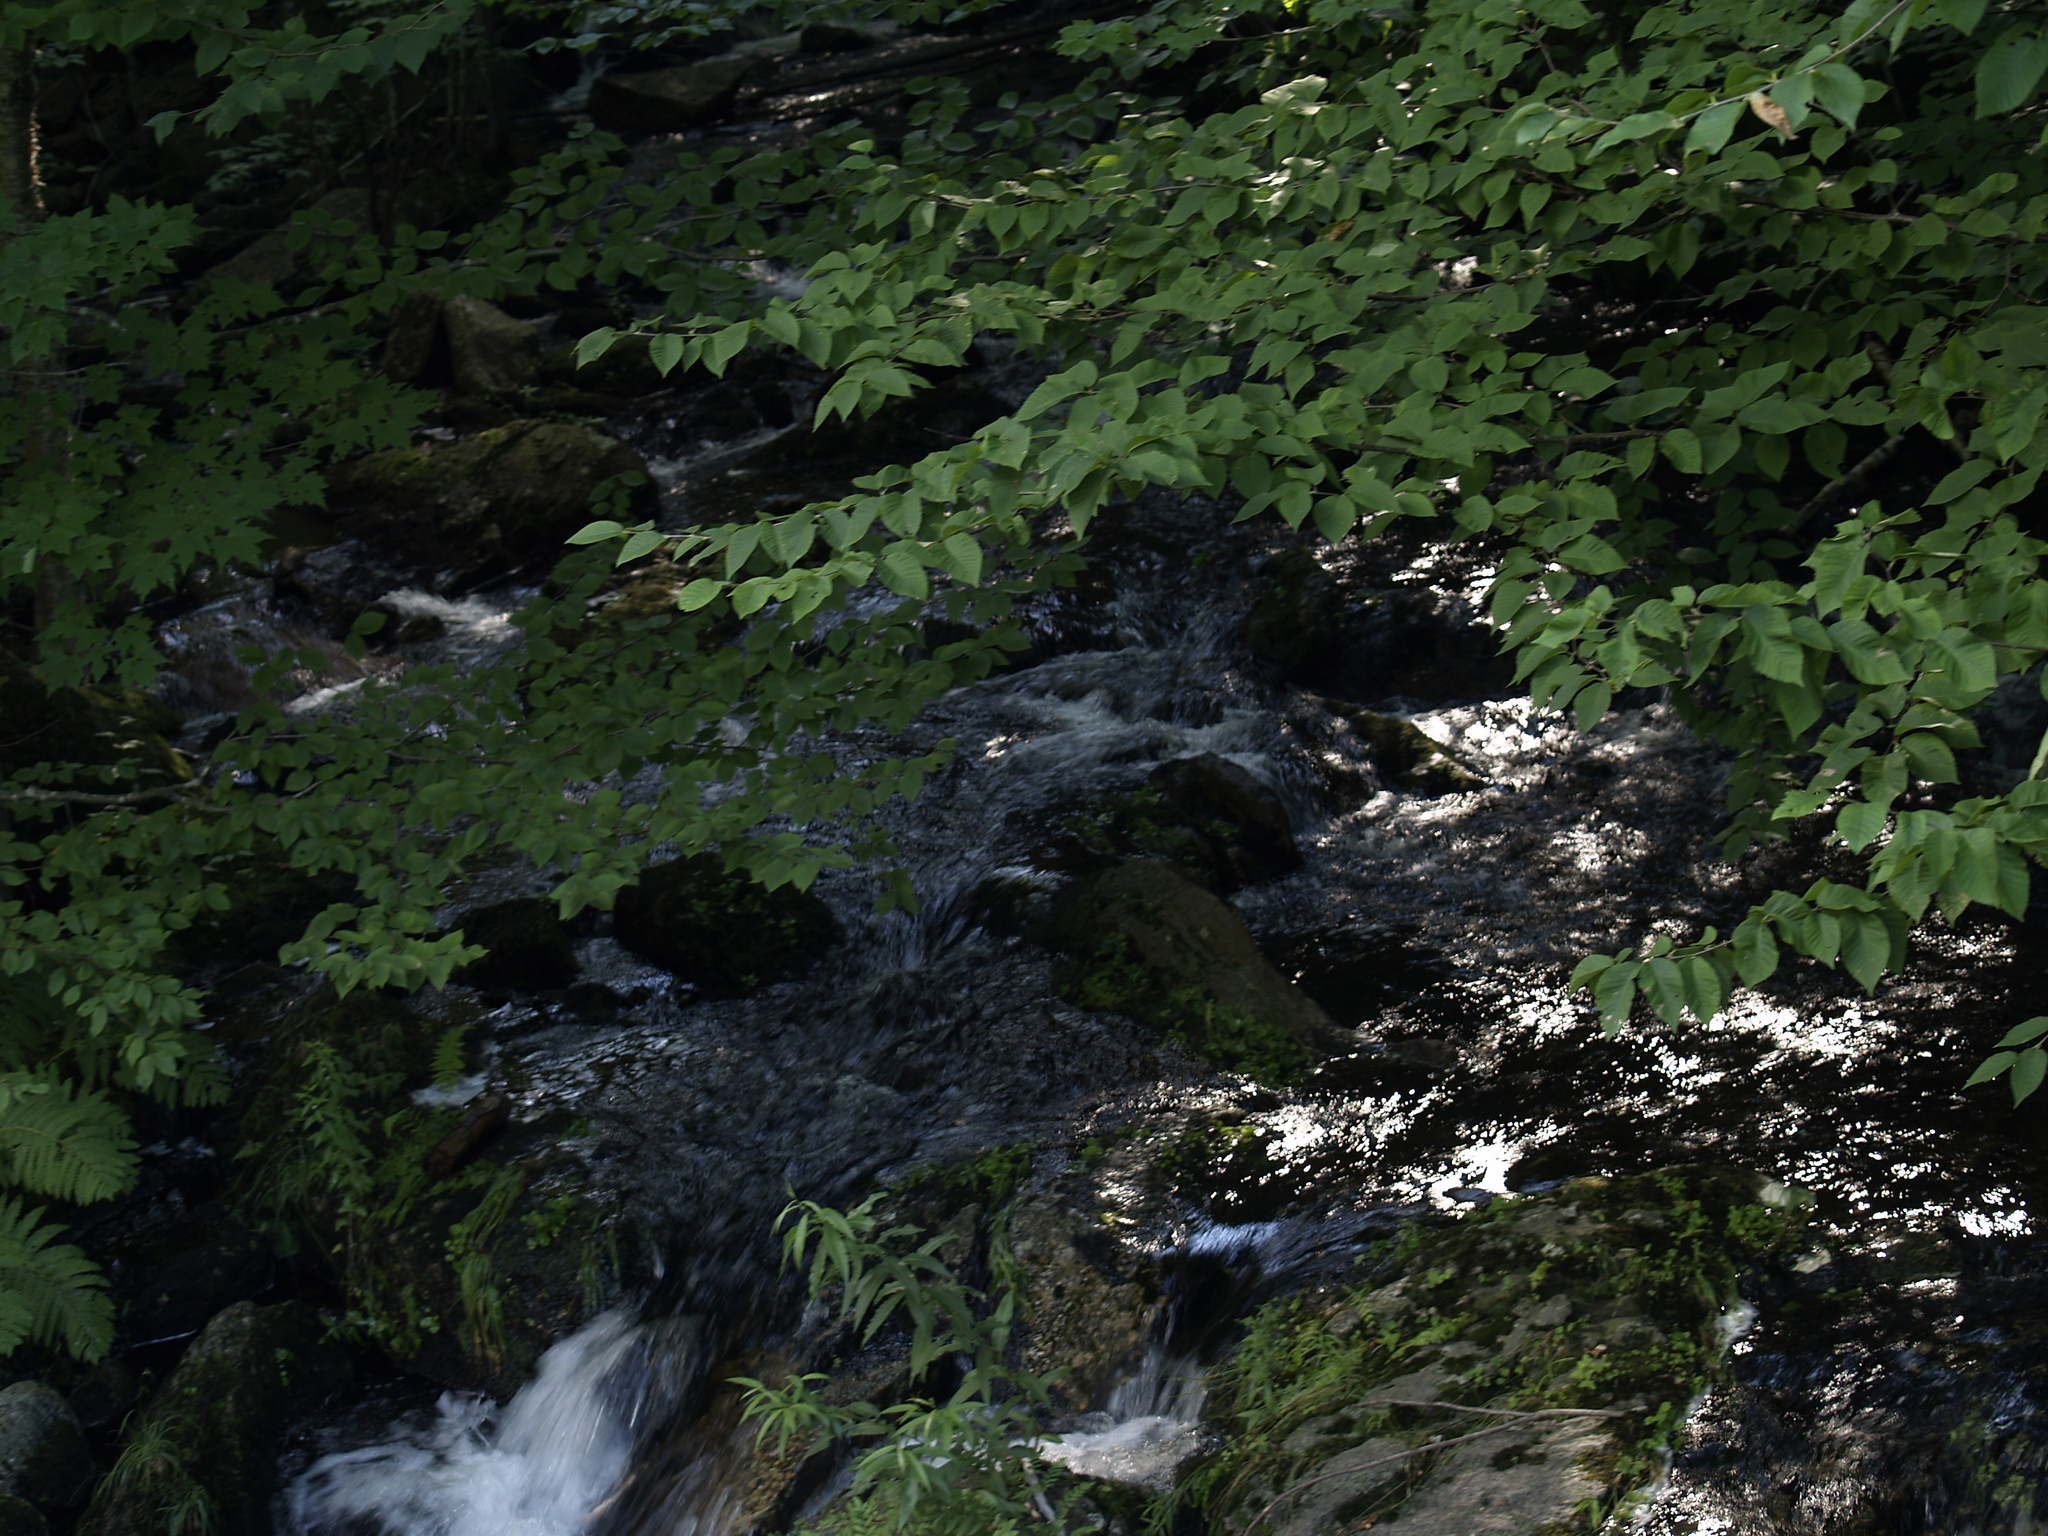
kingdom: Plantae
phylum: Tracheophyta
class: Magnoliopsida
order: Fagales
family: Fagaceae
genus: Fagus
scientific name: Fagus grandifolia
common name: American beech
